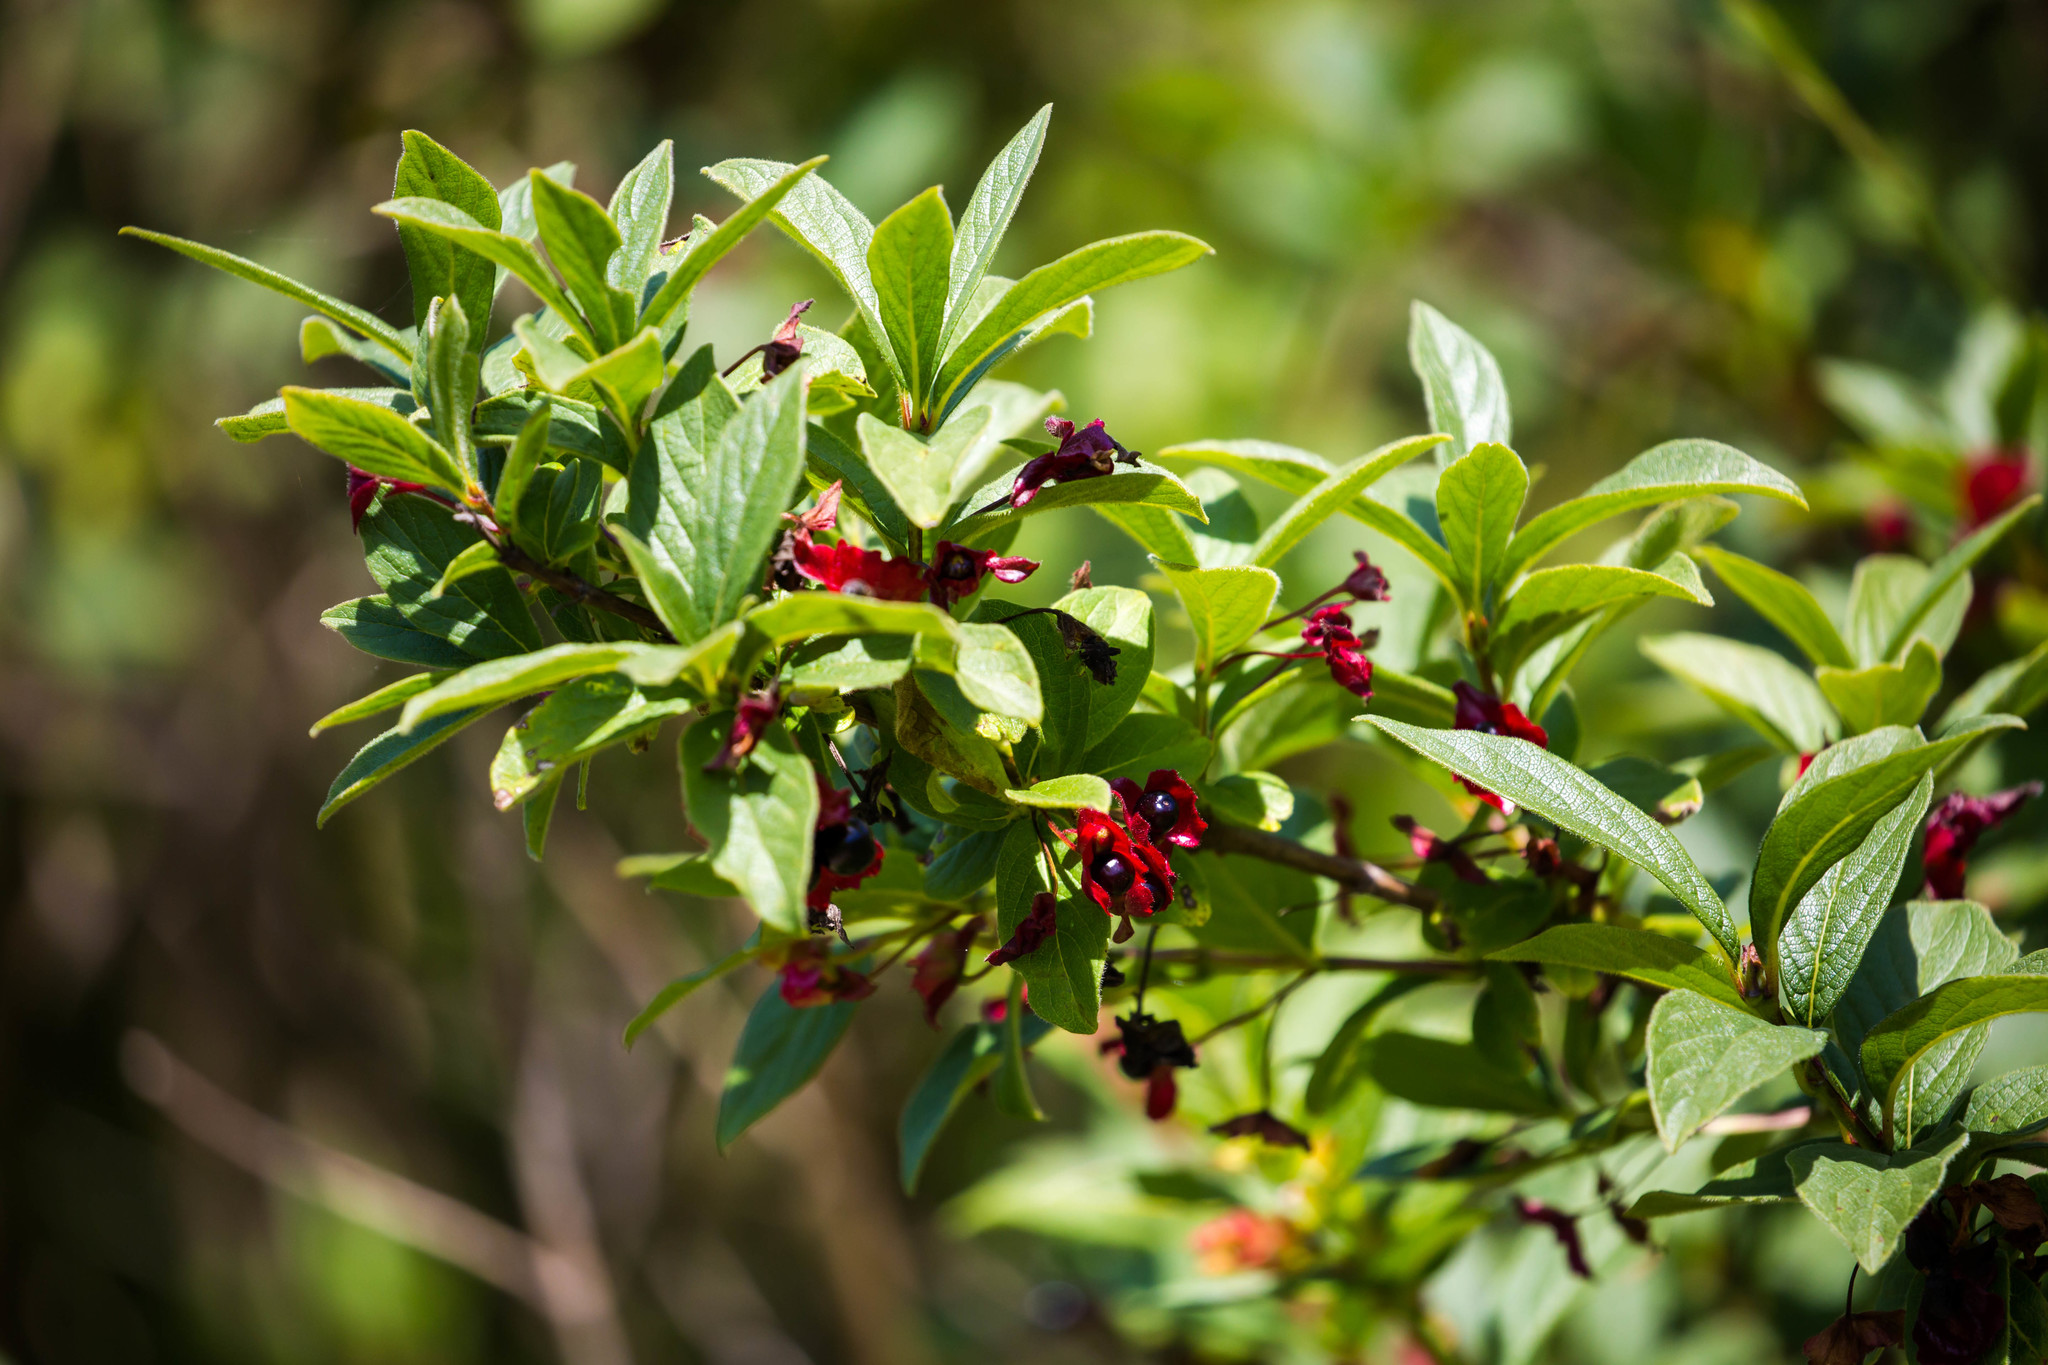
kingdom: Plantae
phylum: Tracheophyta
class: Magnoliopsida
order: Dipsacales
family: Caprifoliaceae
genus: Lonicera
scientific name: Lonicera involucrata
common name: Californian honeysuckle
